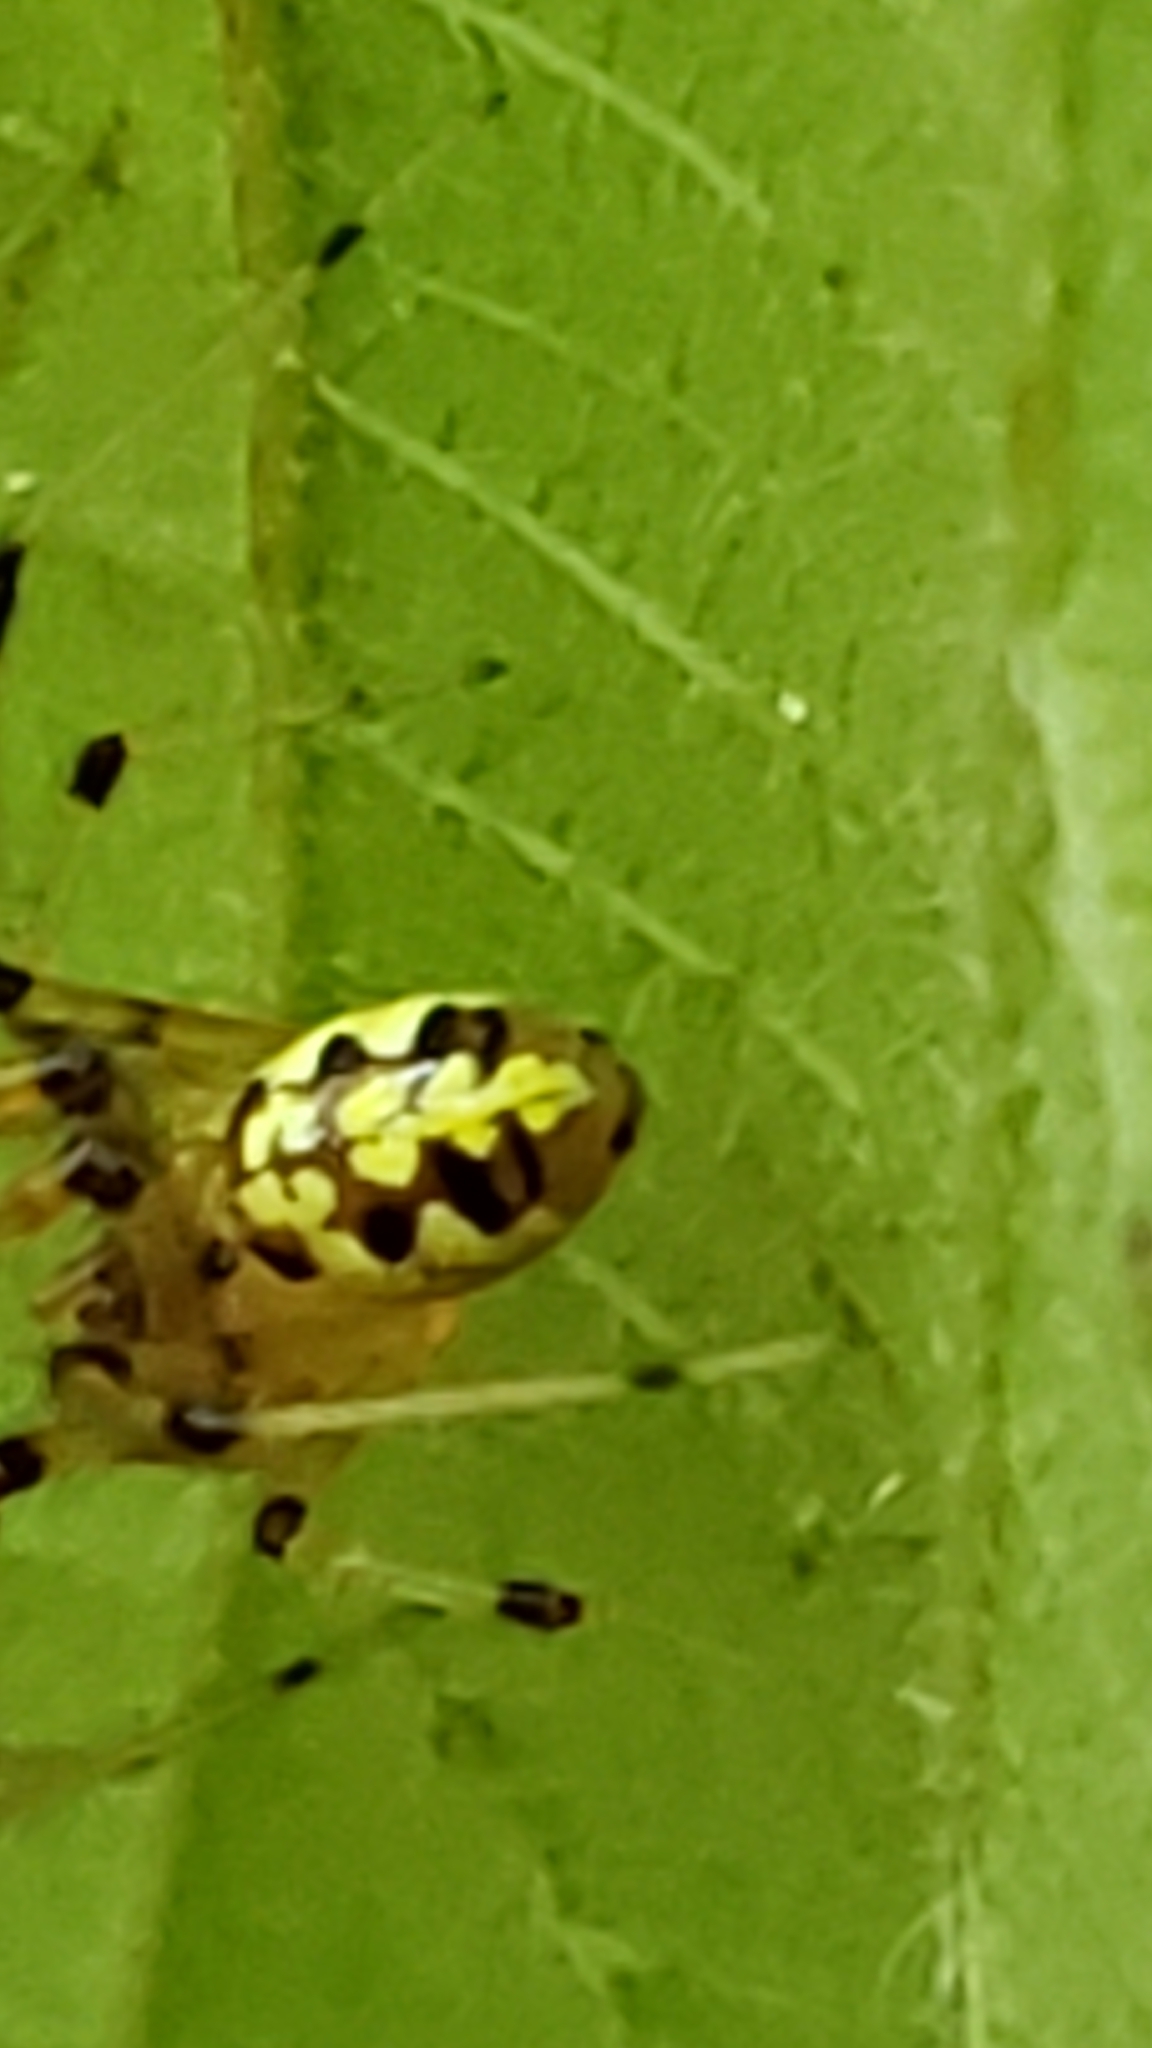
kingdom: Animalia
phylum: Arthropoda
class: Arachnida
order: Araneae
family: Theridiidae
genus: Phylloneta
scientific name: Phylloneta pictipes
